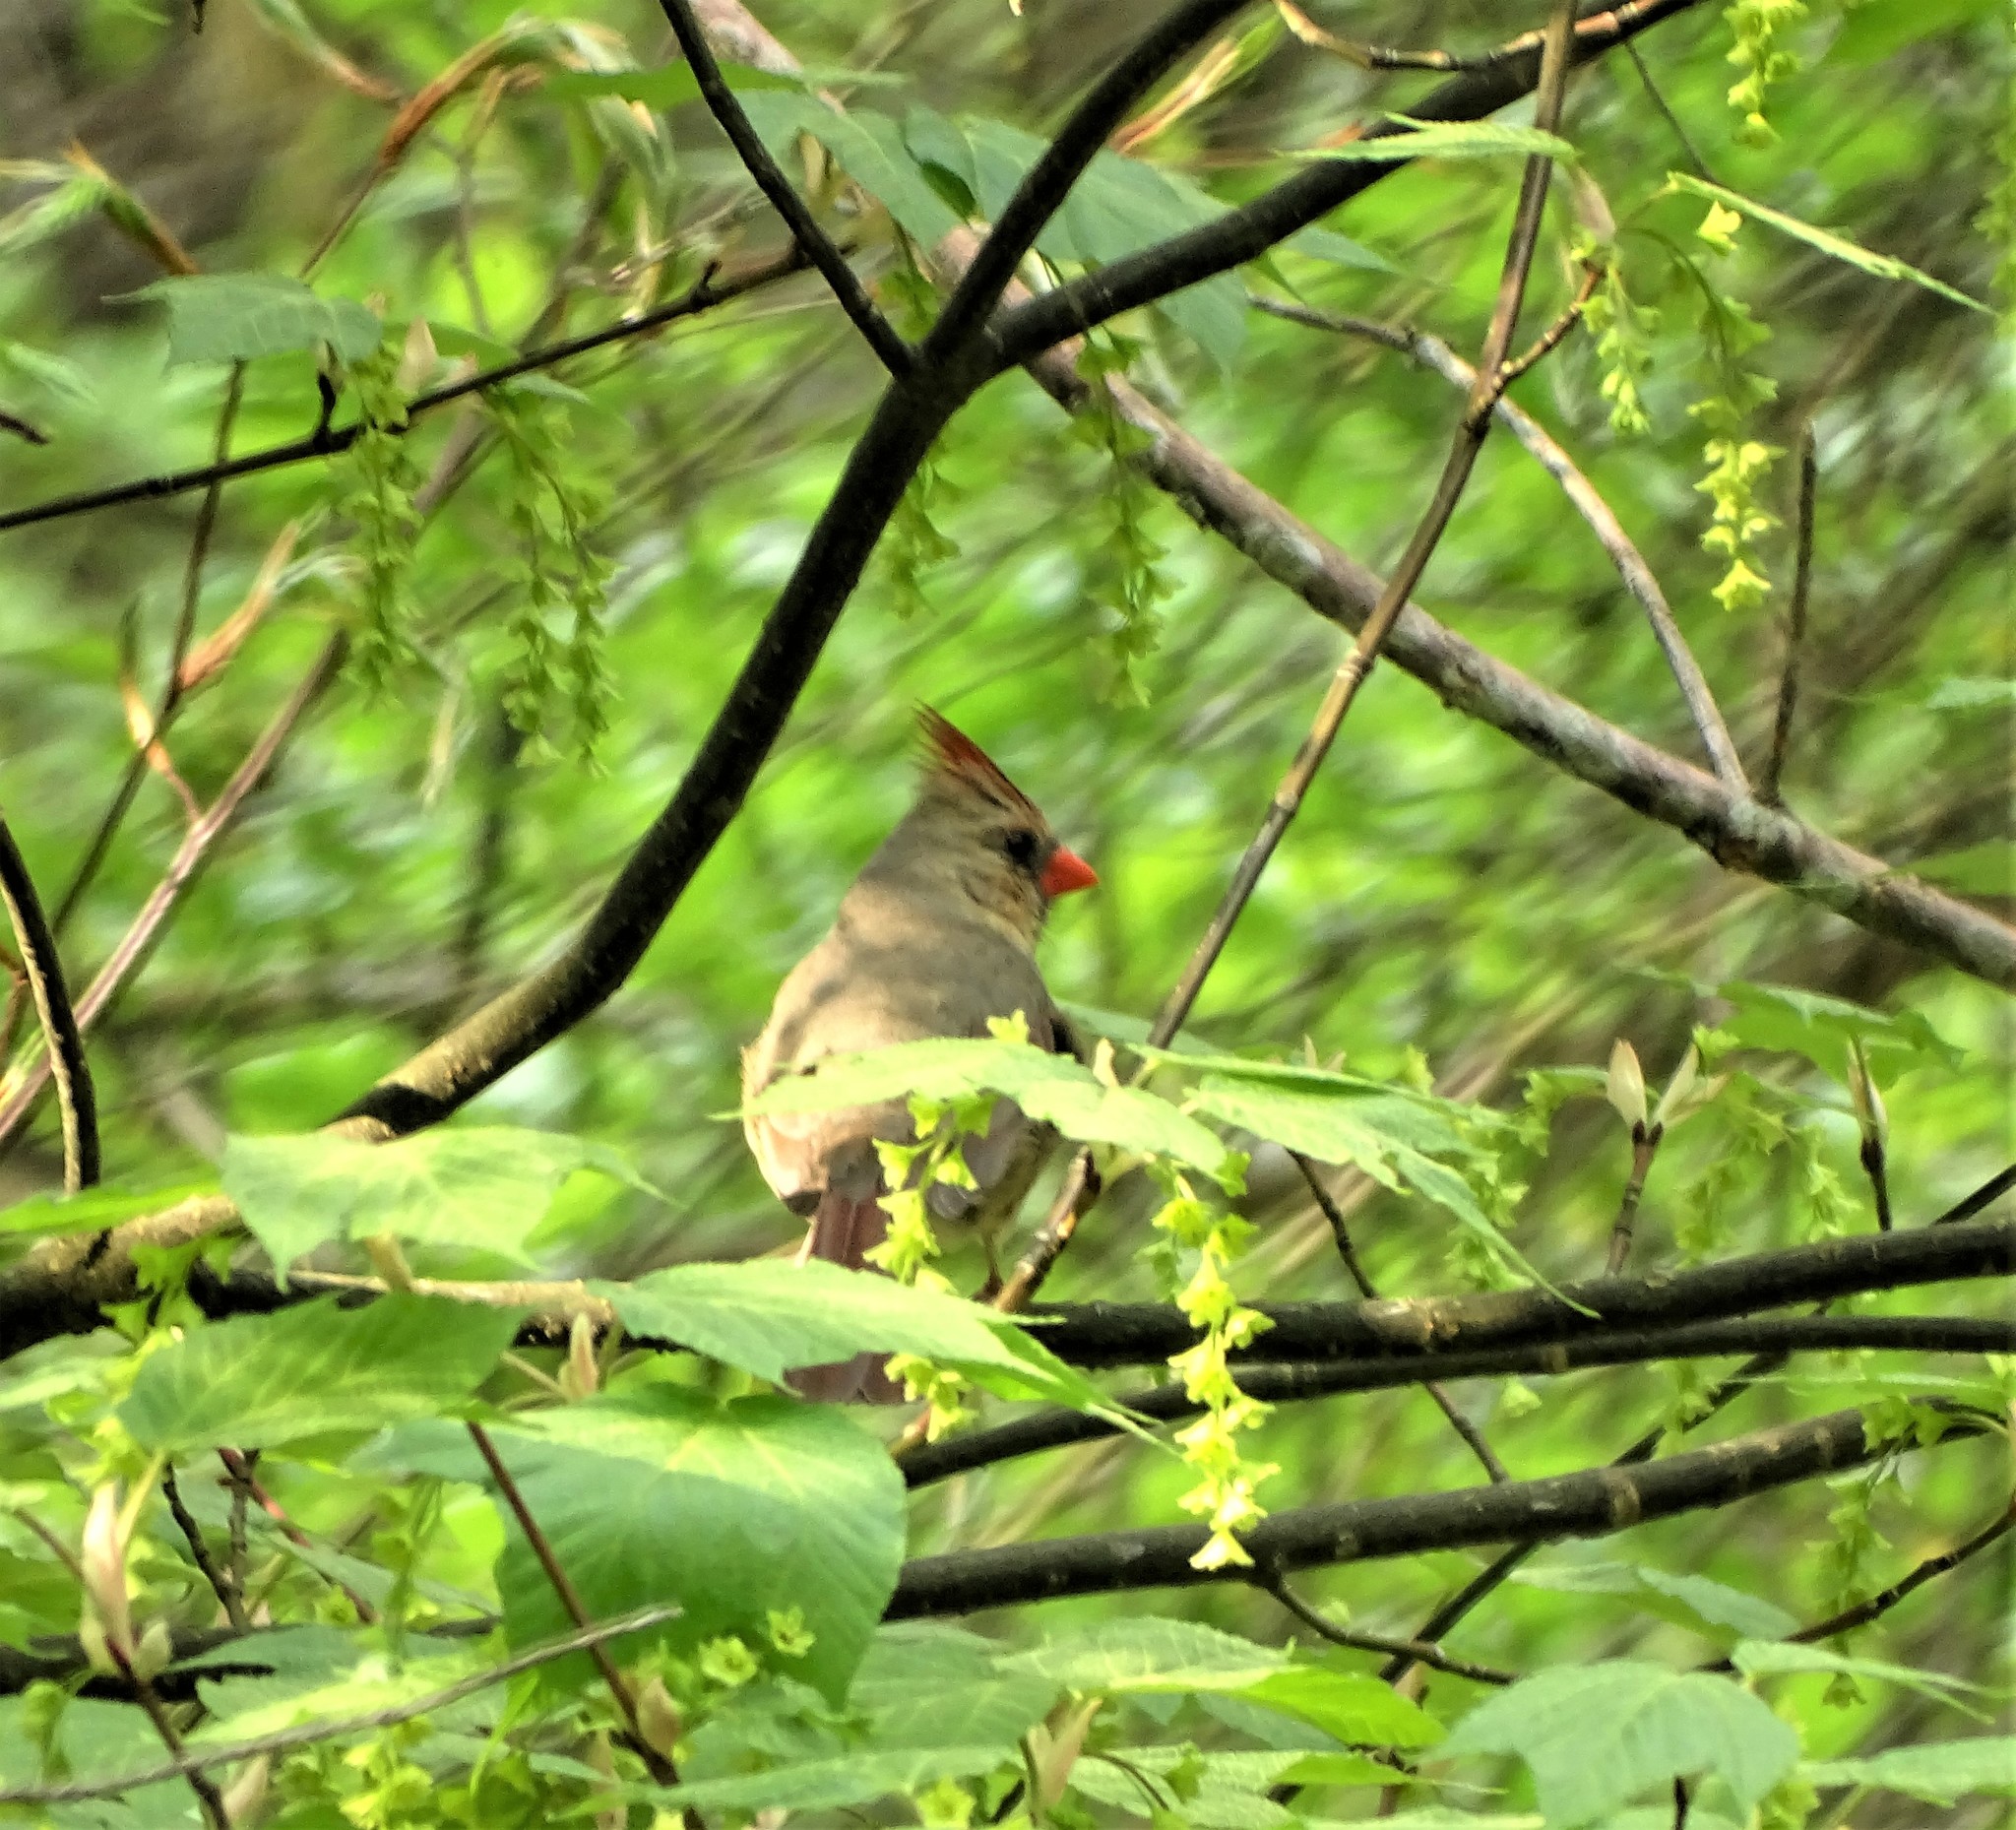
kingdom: Animalia
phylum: Chordata
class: Aves
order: Passeriformes
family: Cardinalidae
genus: Cardinalis
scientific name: Cardinalis cardinalis
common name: Northern cardinal
